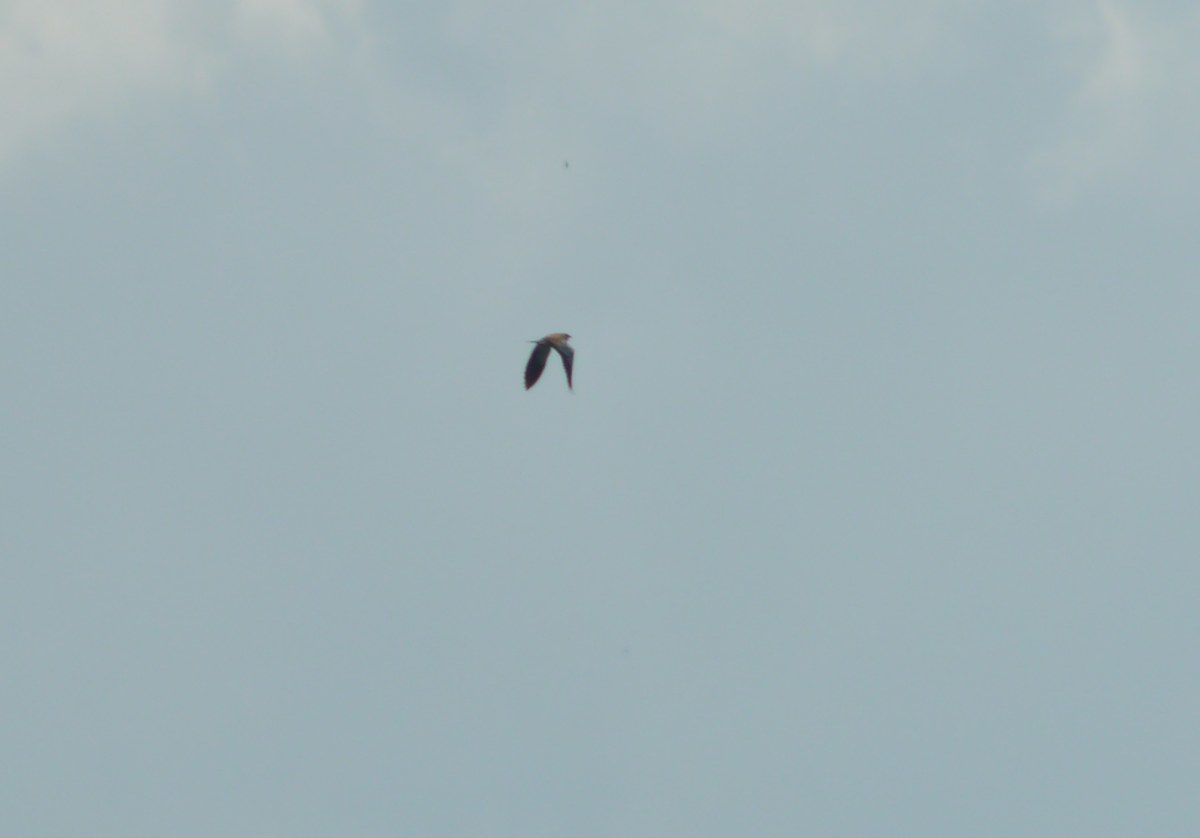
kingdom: Animalia
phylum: Chordata
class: Aves
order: Coraciiformes
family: Coraciidae
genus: Coracias
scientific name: Coracias garrulus
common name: European roller
